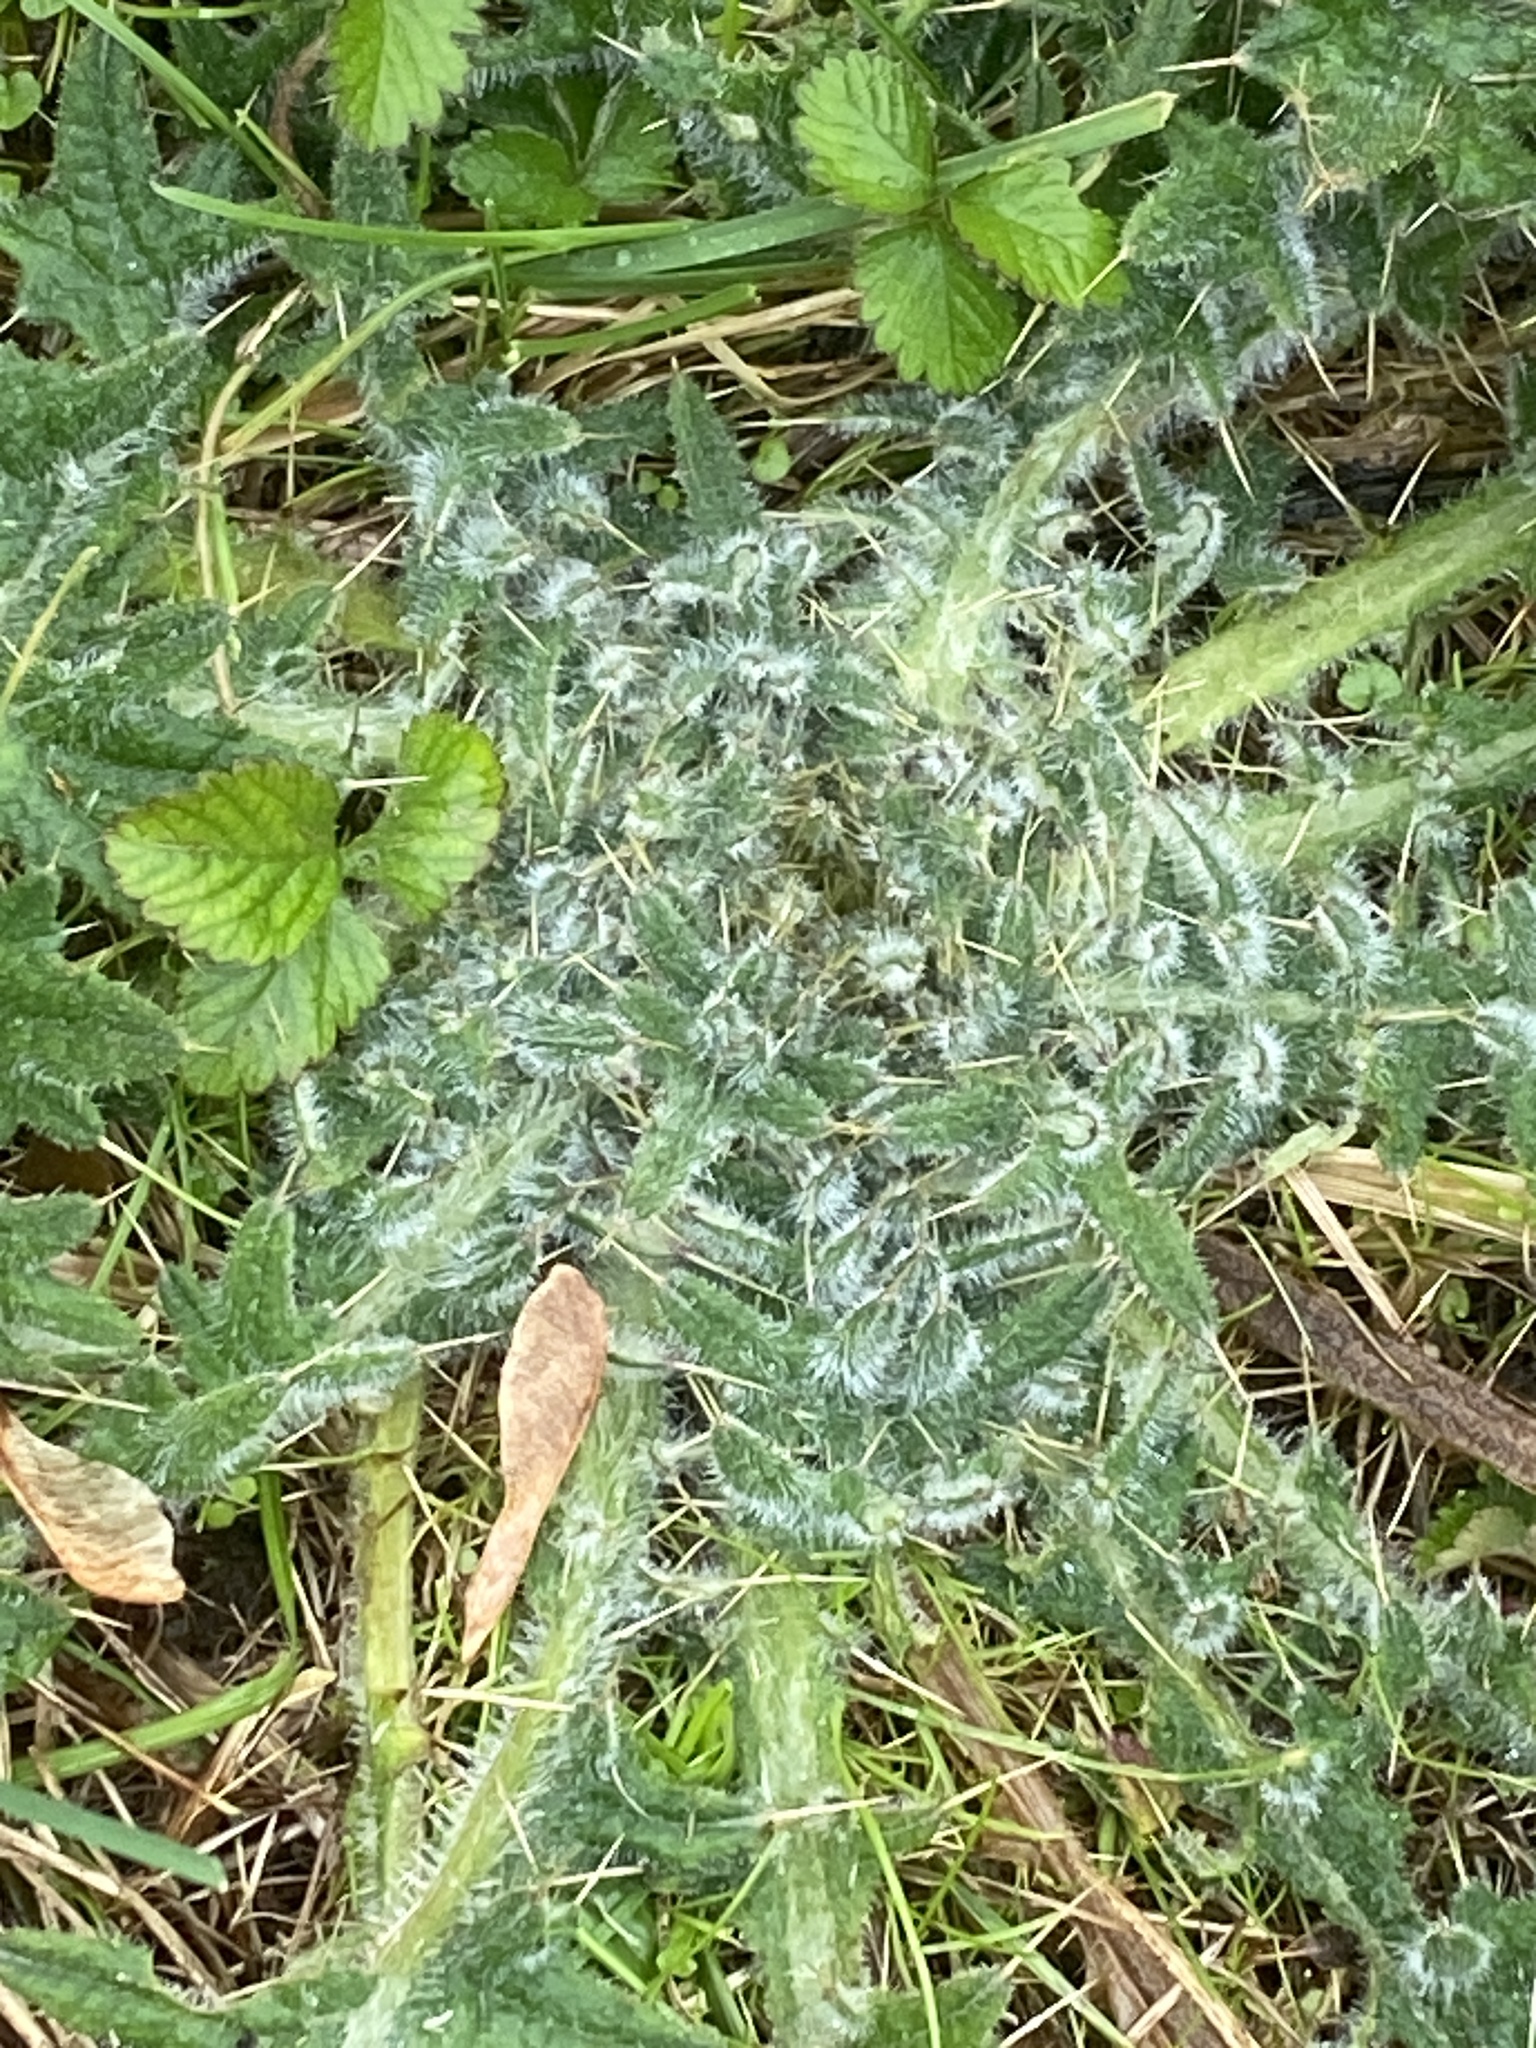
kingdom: Plantae
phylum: Tracheophyta
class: Magnoliopsida
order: Asterales
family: Asteraceae
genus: Cirsium
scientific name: Cirsium vulgare
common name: Bull thistle
